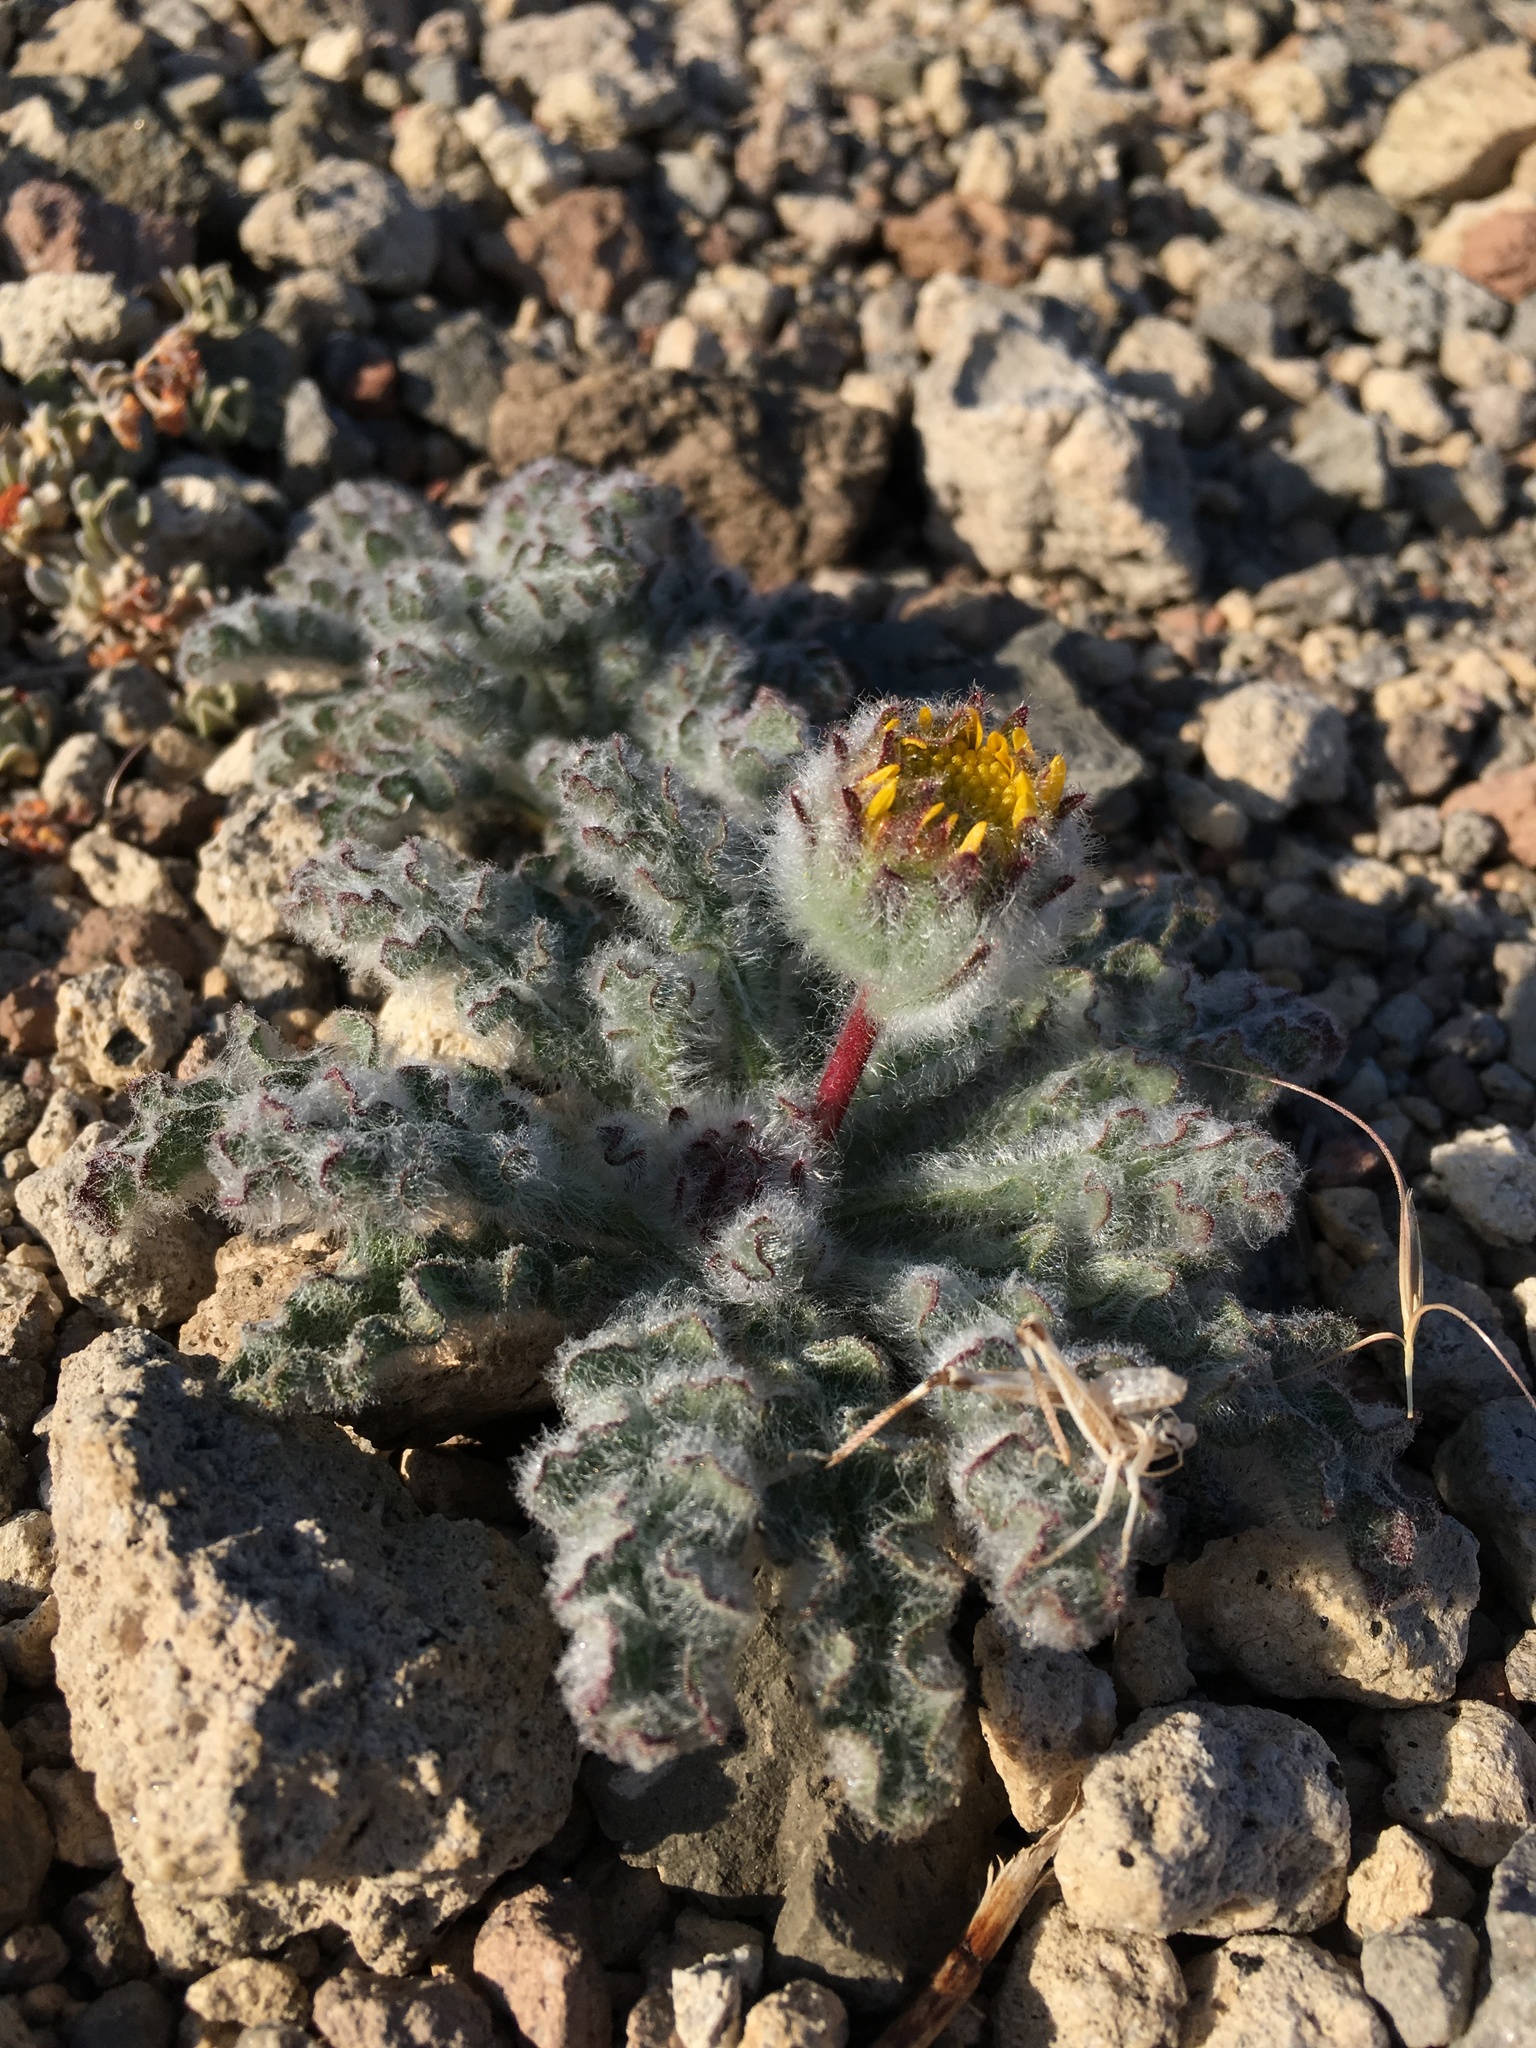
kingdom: Plantae
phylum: Tracheophyta
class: Magnoliopsida
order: Asterales
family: Asteraceae
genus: Hulsea
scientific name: Hulsea nana
